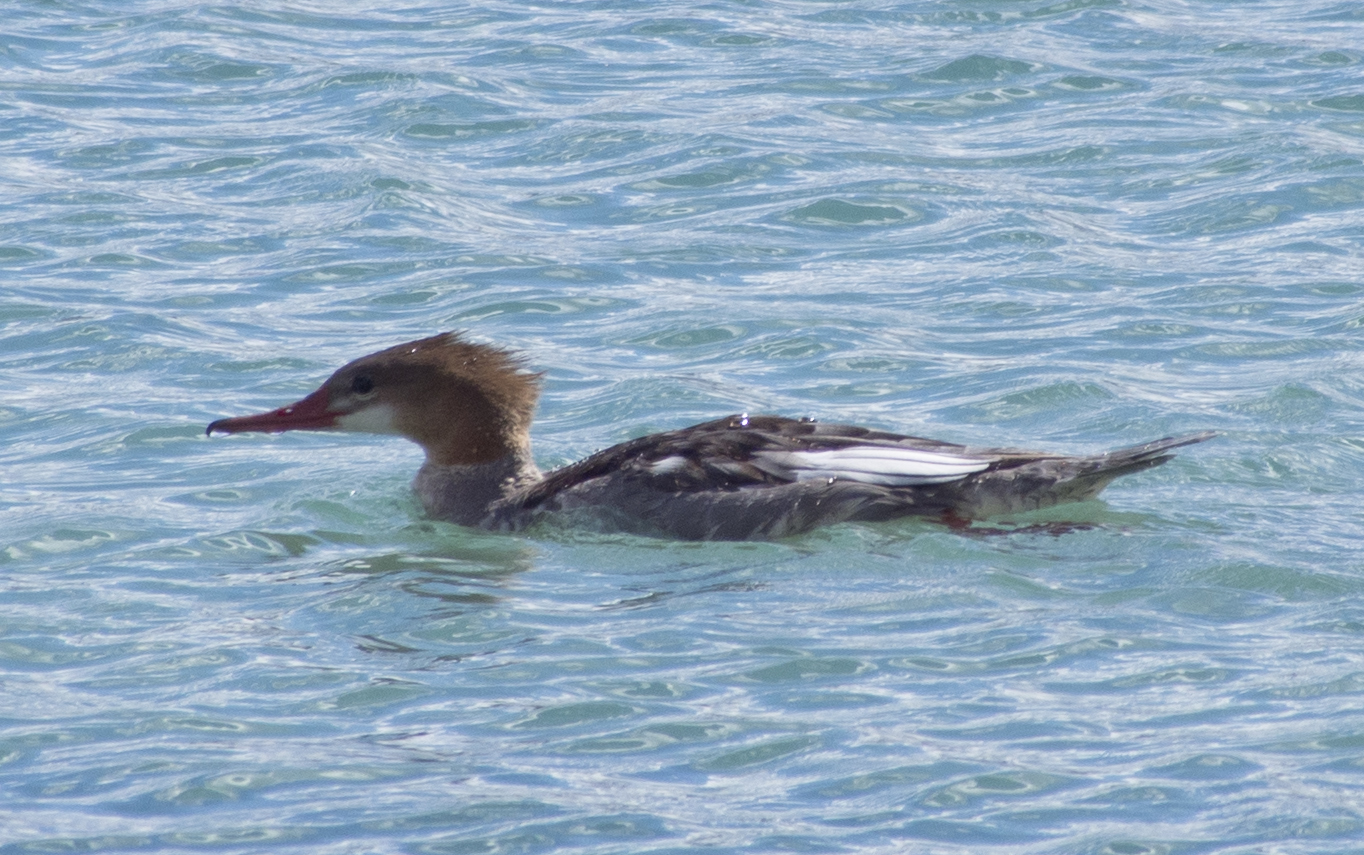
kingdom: Animalia
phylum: Chordata
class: Aves
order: Anseriformes
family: Anatidae
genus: Mergus
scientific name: Mergus merganser
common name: Common merganser
